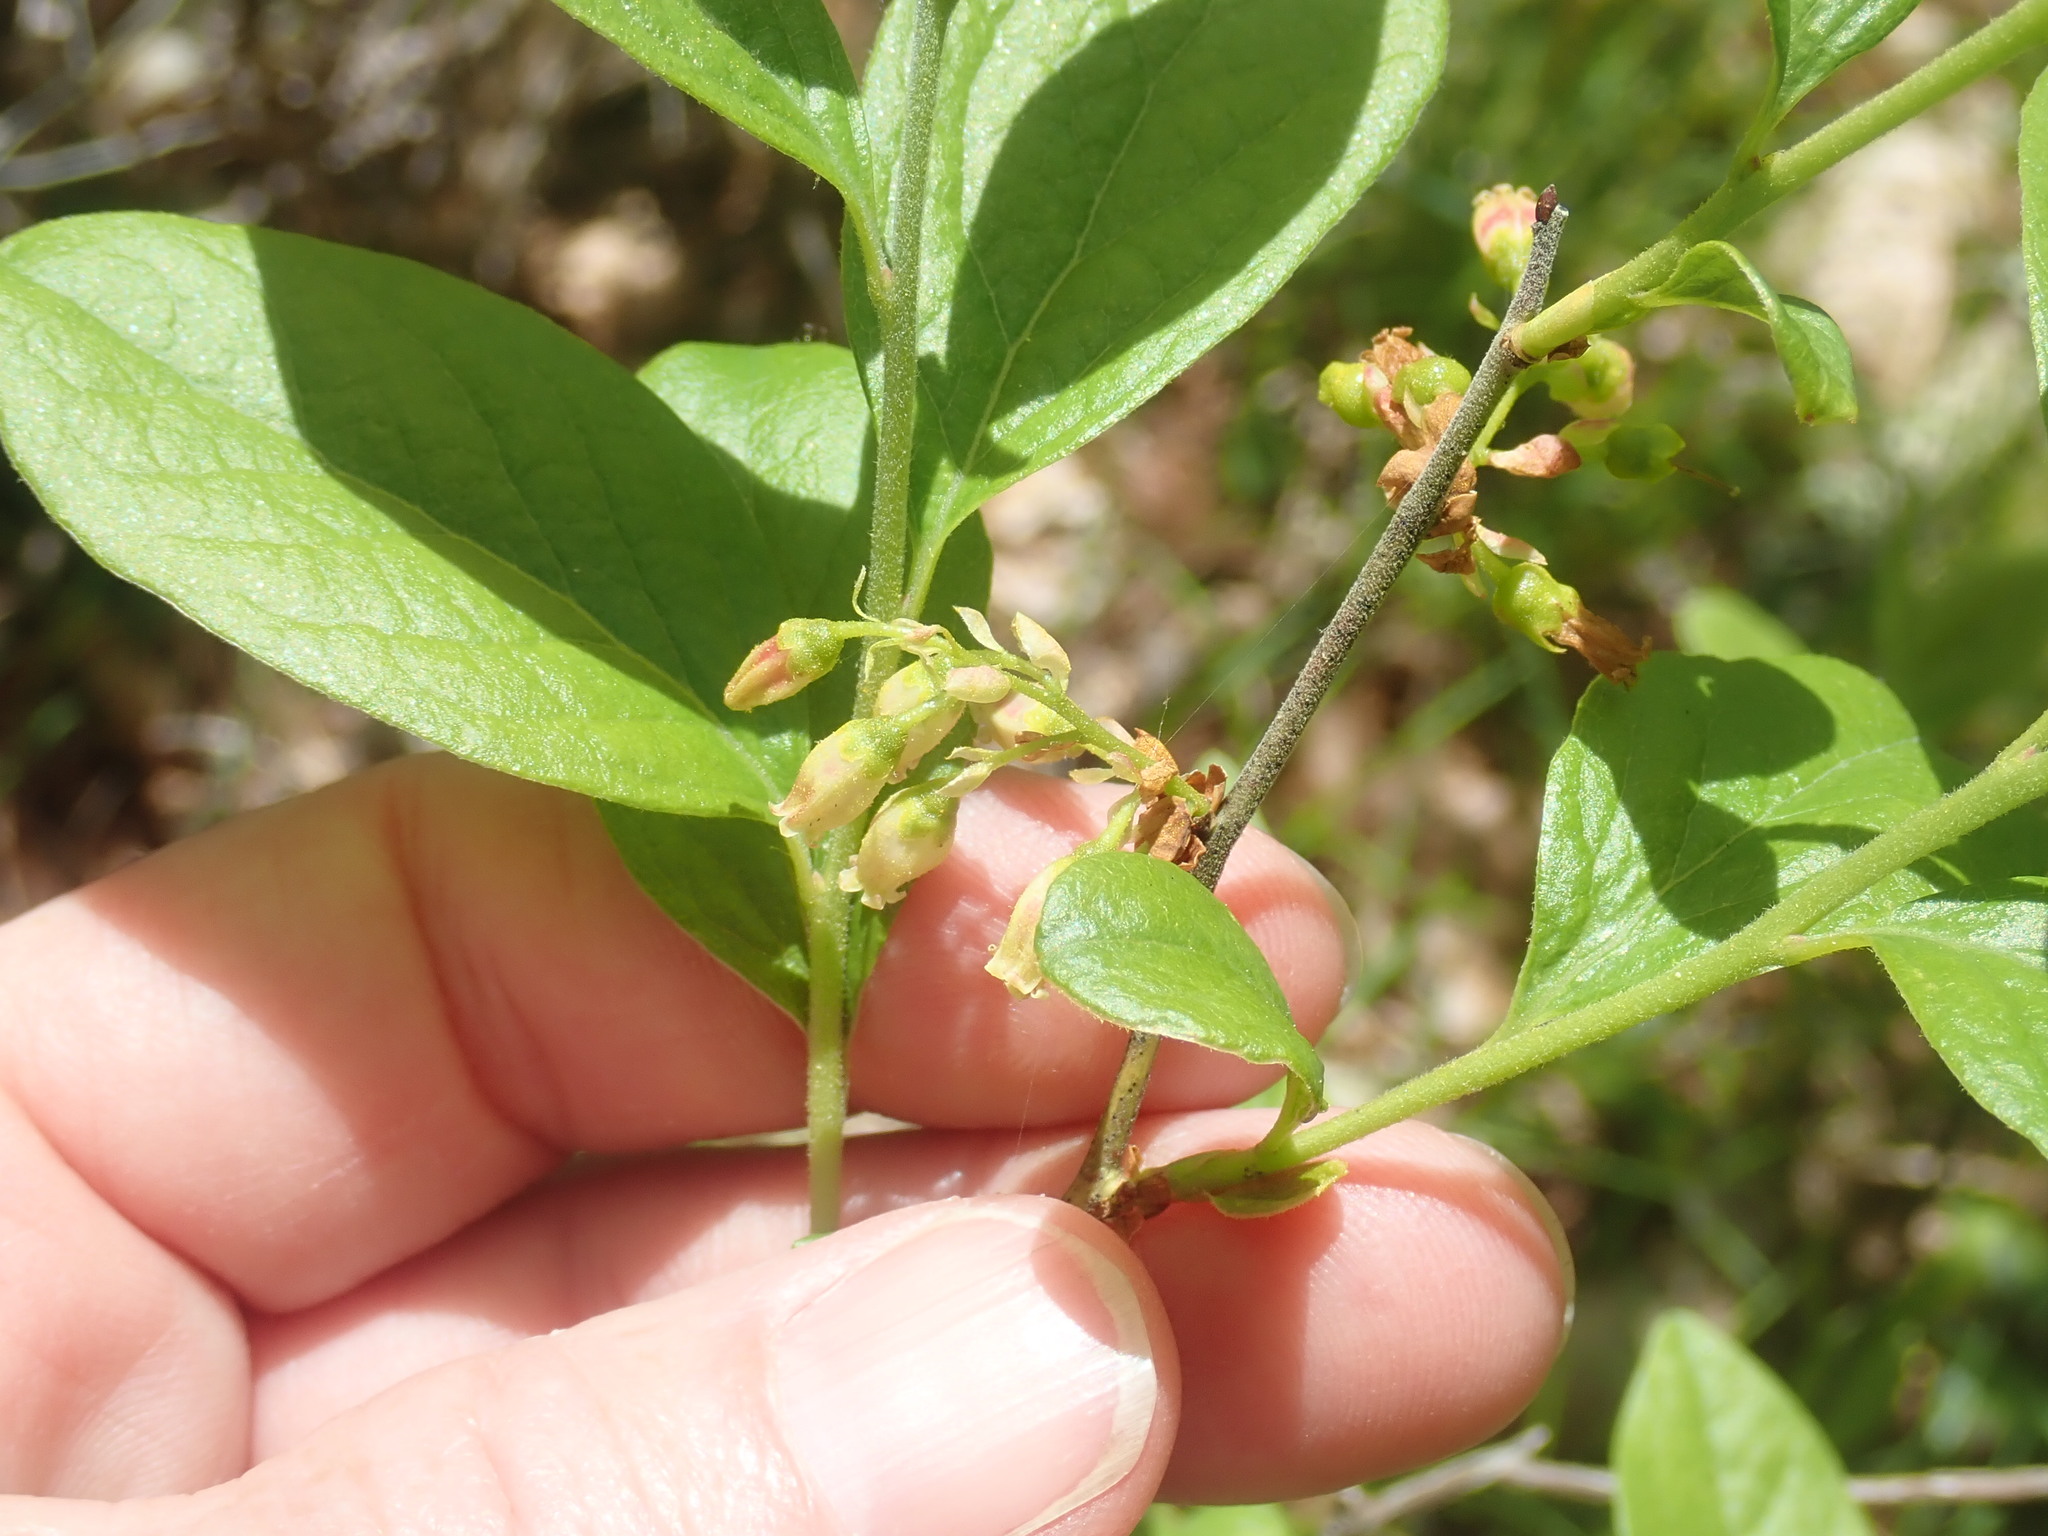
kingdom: Plantae
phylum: Tracheophyta
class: Magnoliopsida
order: Ericales
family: Ericaceae
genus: Gaylussacia
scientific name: Gaylussacia baccata
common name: Black huckleberry
